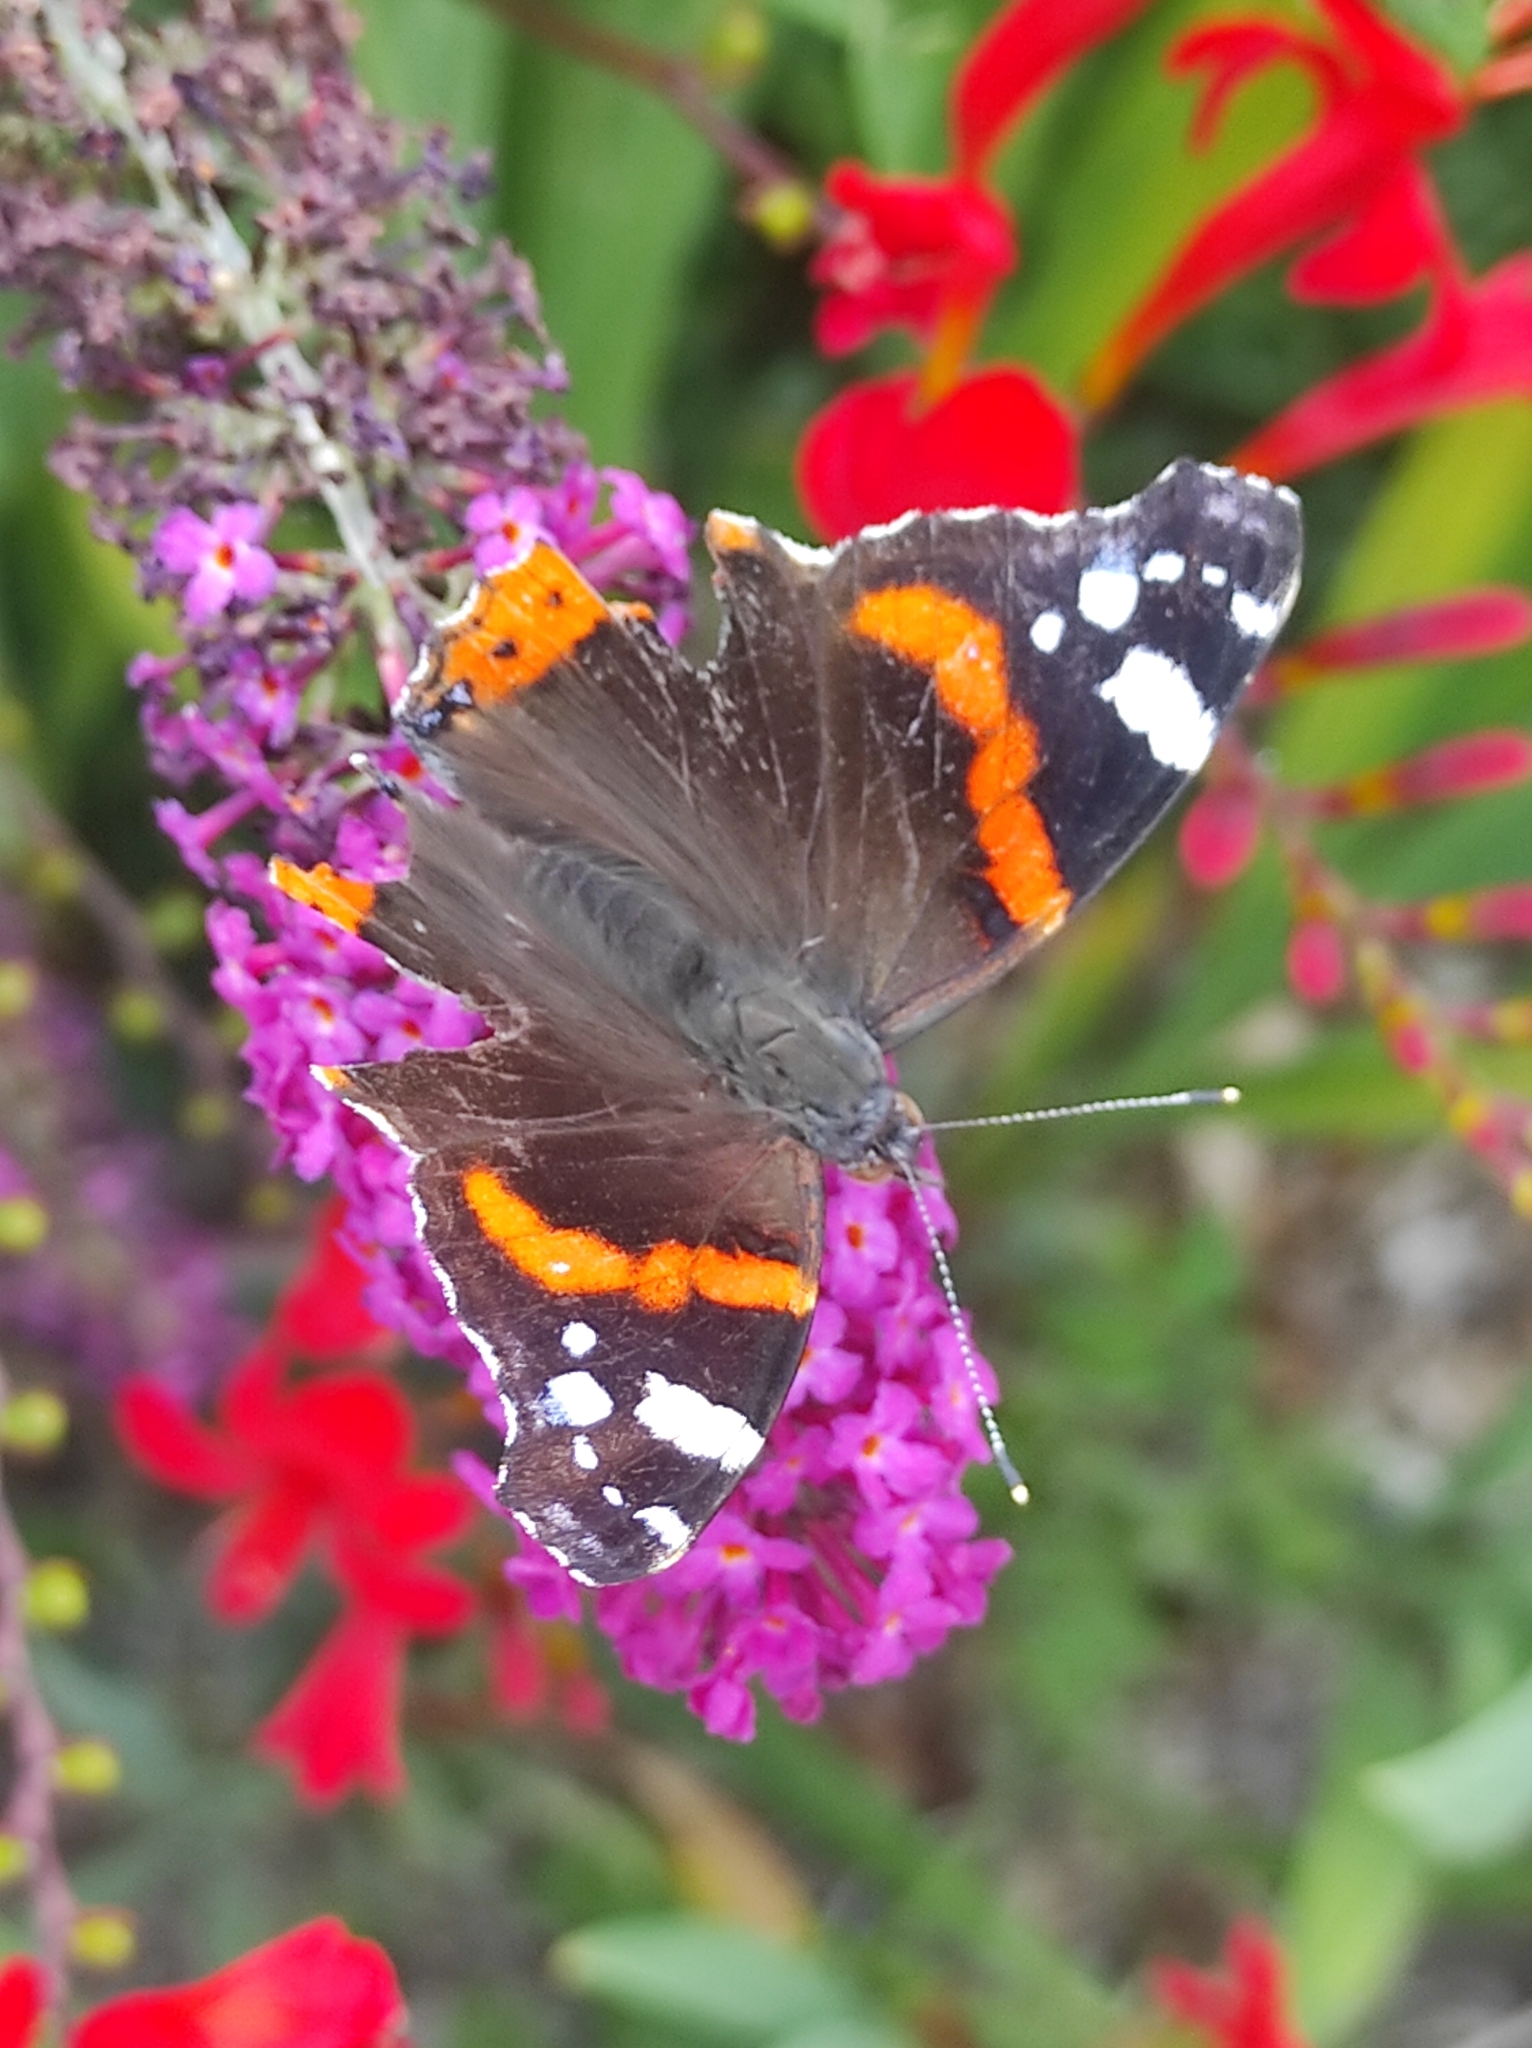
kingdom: Animalia
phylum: Arthropoda
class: Insecta
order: Lepidoptera
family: Nymphalidae
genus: Vanessa
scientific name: Vanessa atalanta
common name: Red admiral
